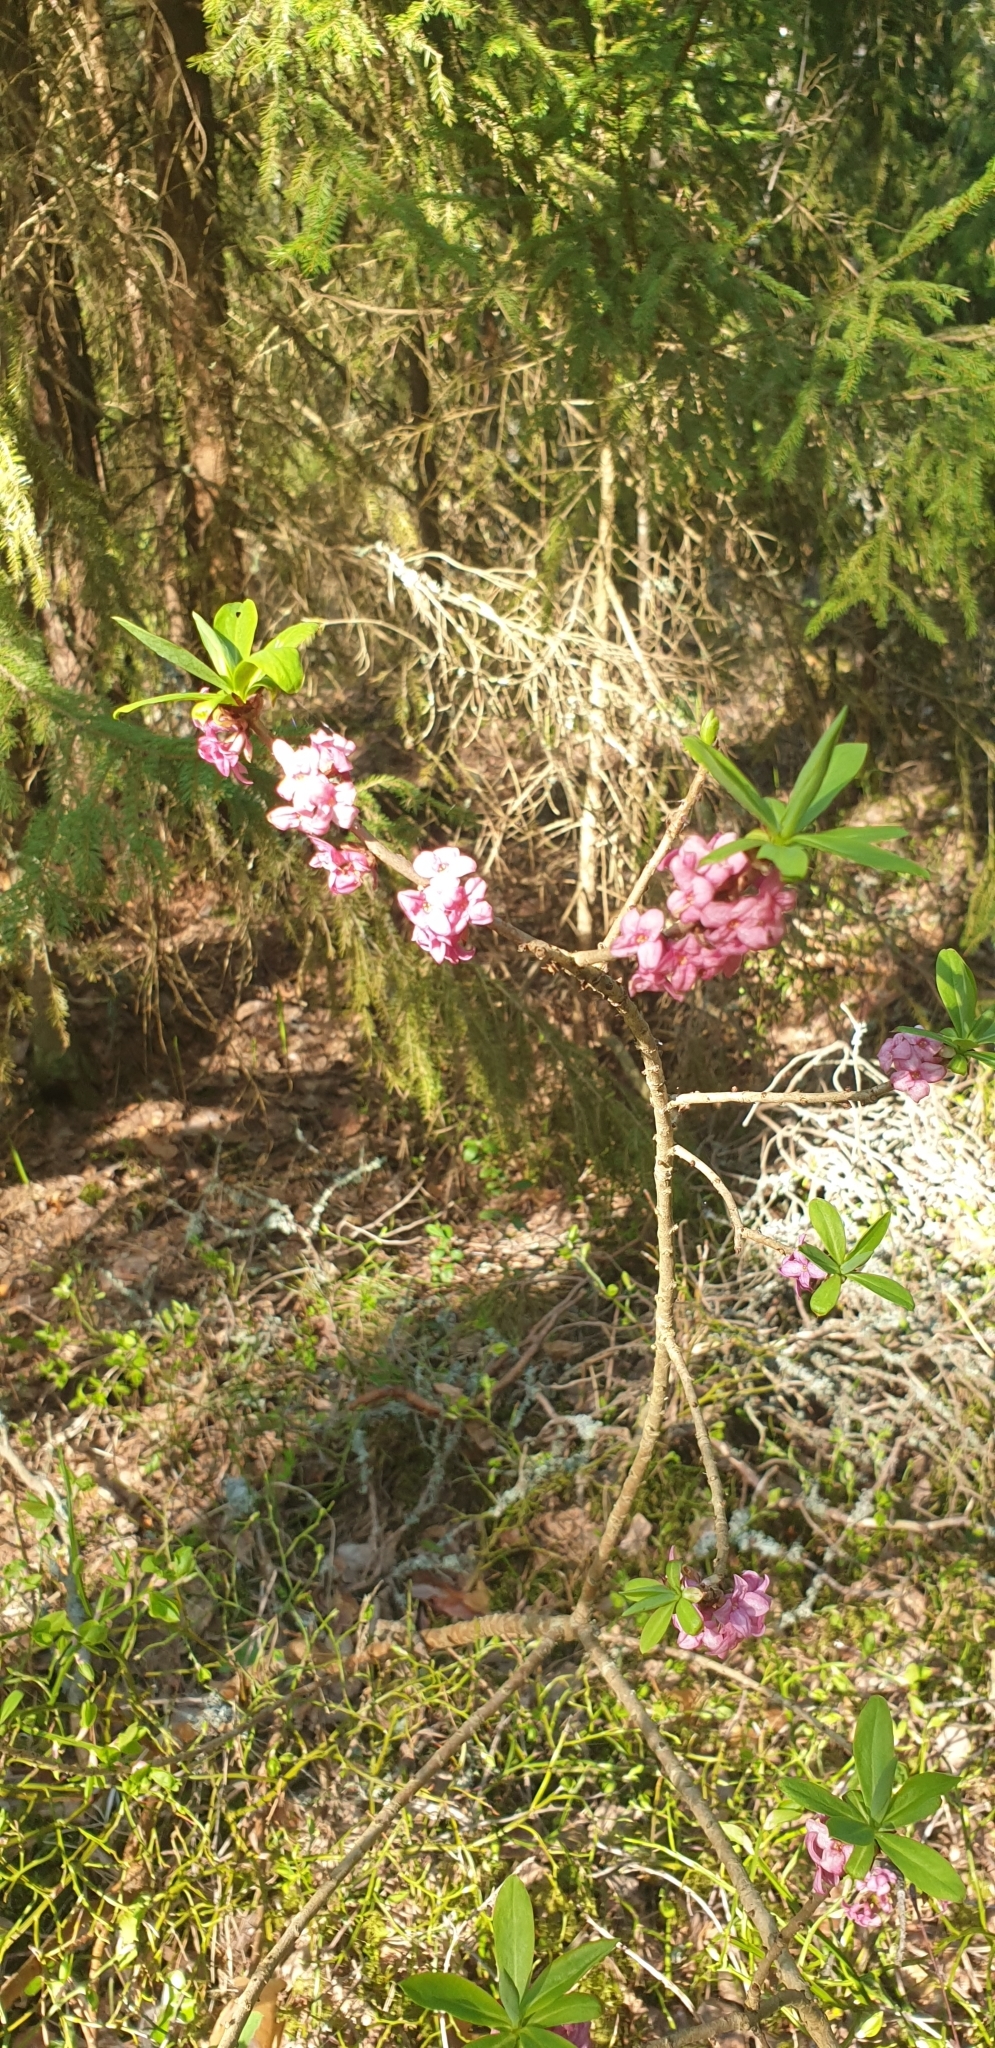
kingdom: Plantae
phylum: Tracheophyta
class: Magnoliopsida
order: Malvales
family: Thymelaeaceae
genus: Daphne
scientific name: Daphne mezereum
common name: Mezereon
